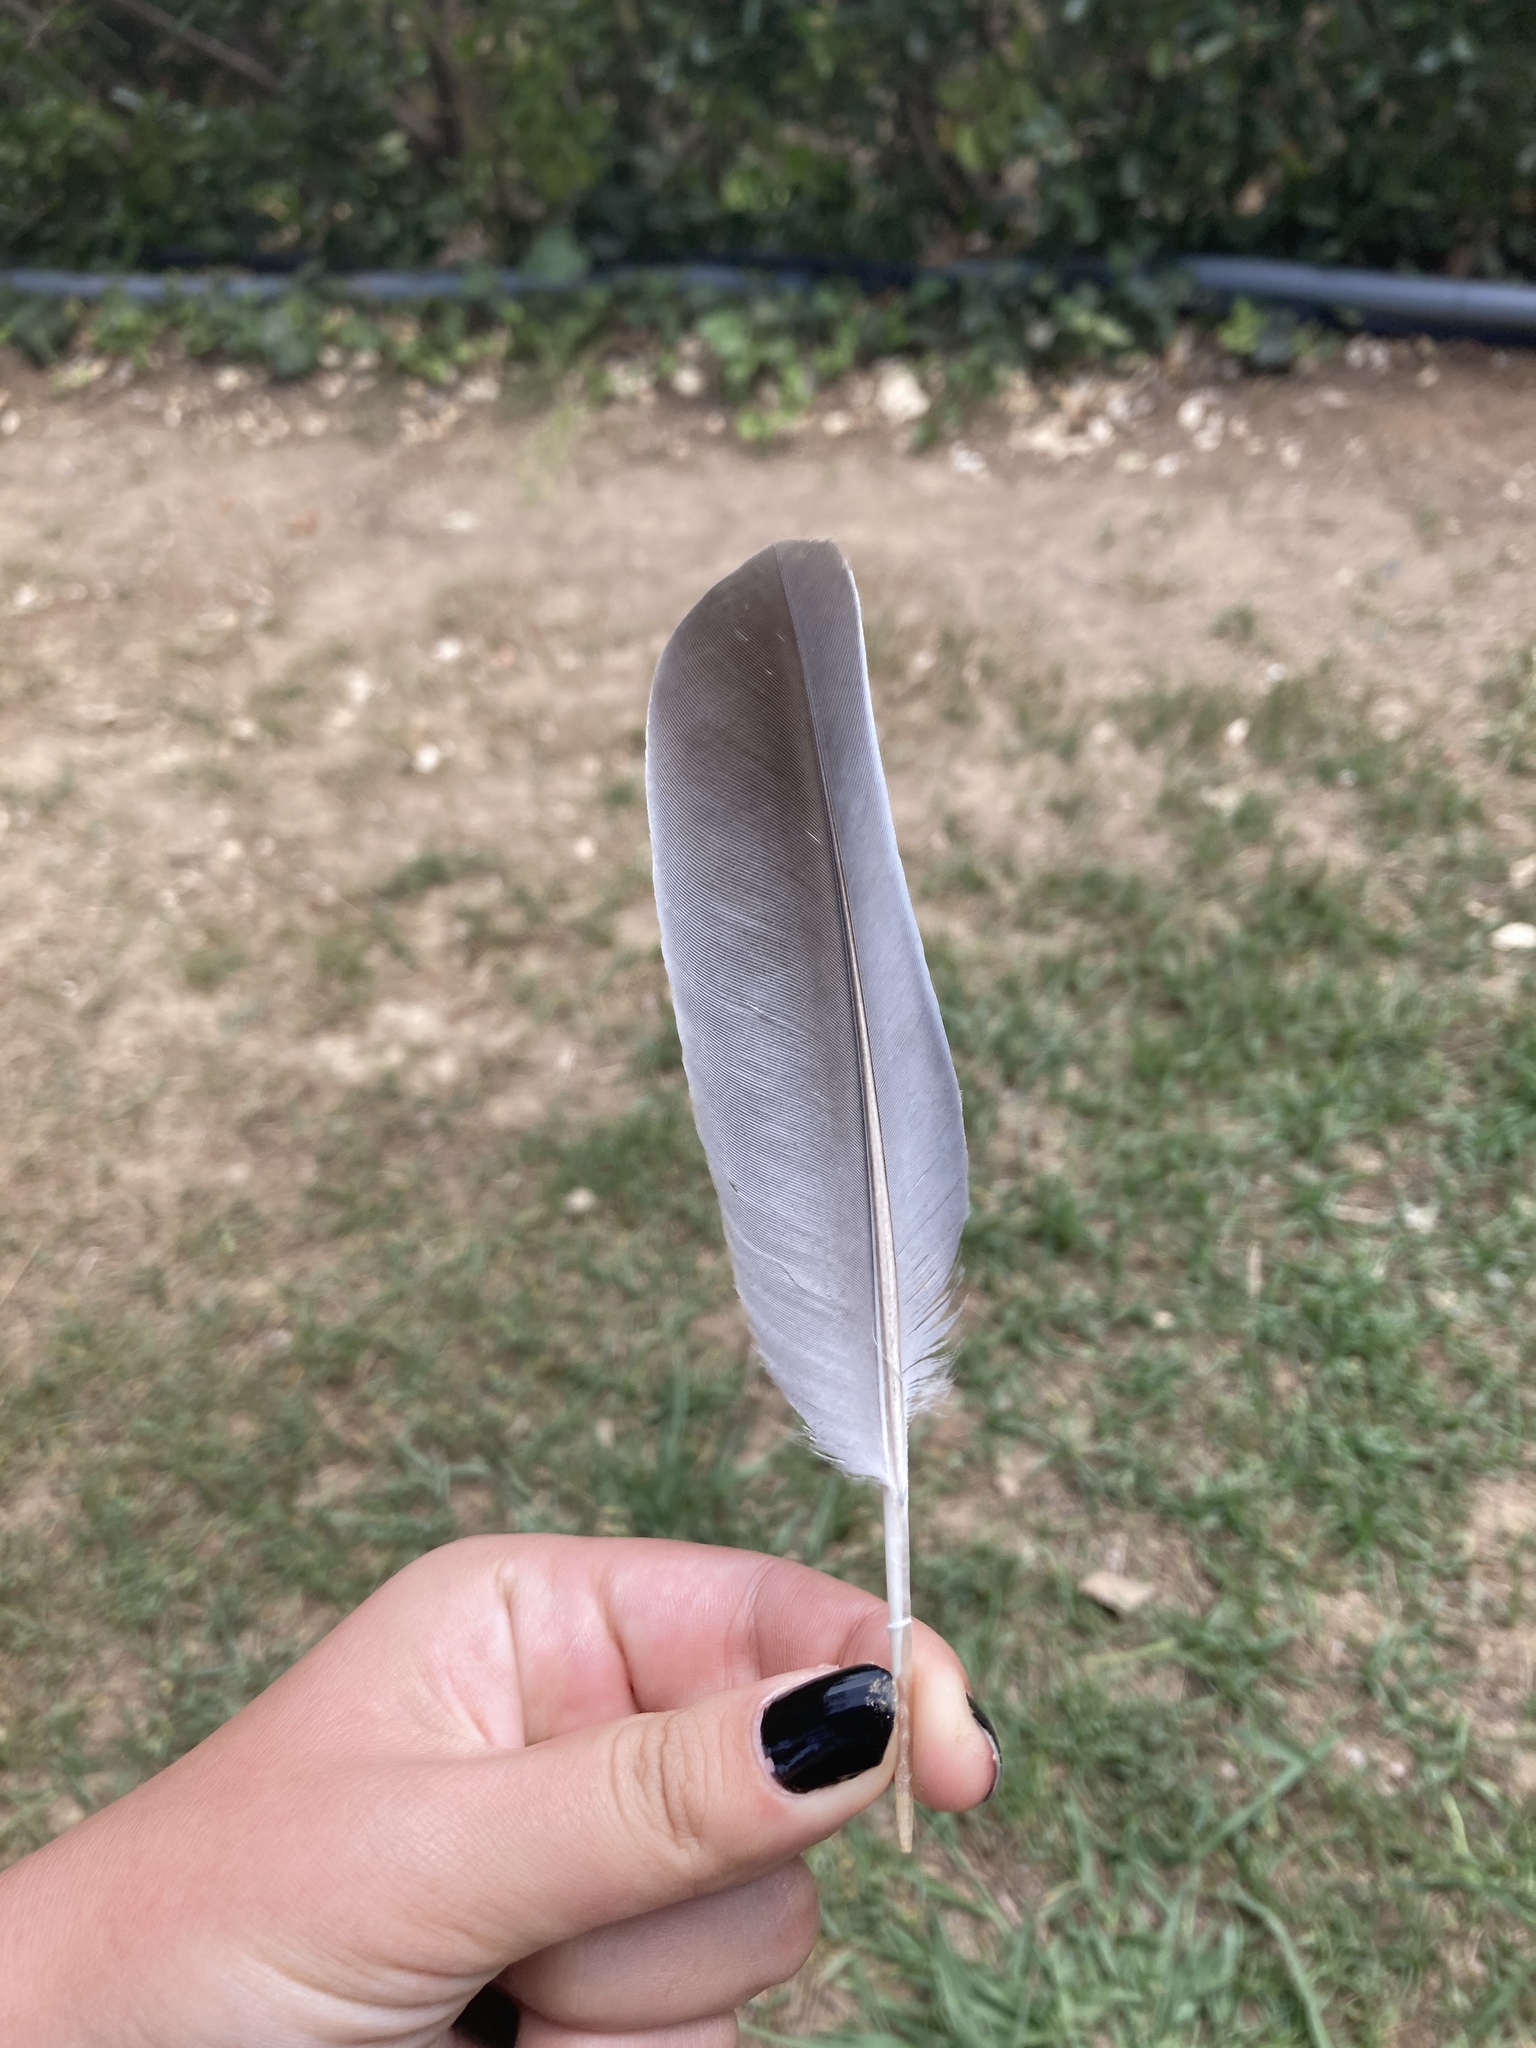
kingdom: Animalia
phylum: Chordata
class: Aves
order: Columbiformes
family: Columbidae
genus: Columba
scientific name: Columba palumbus
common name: Common wood pigeon
